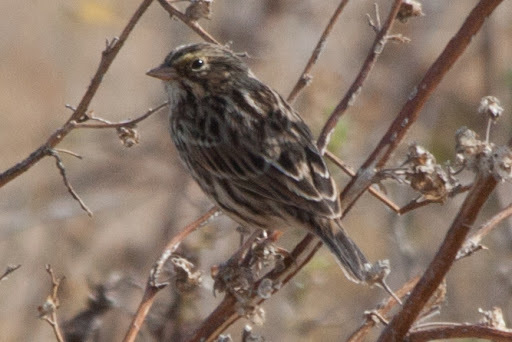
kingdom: Animalia
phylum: Chordata
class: Aves
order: Passeriformes
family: Passerellidae
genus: Passerculus
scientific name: Passerculus sandwichensis
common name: Savannah sparrow
